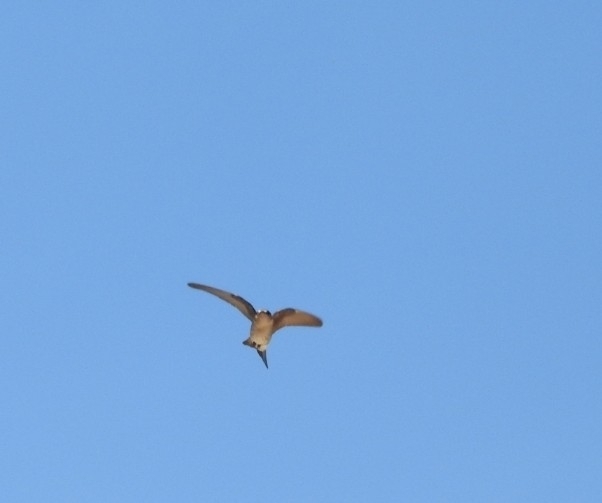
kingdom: Animalia
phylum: Chordata
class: Aves
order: Passeriformes
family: Hirundinidae
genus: Petrochelidon
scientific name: Petrochelidon fulva
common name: Cave swallow
